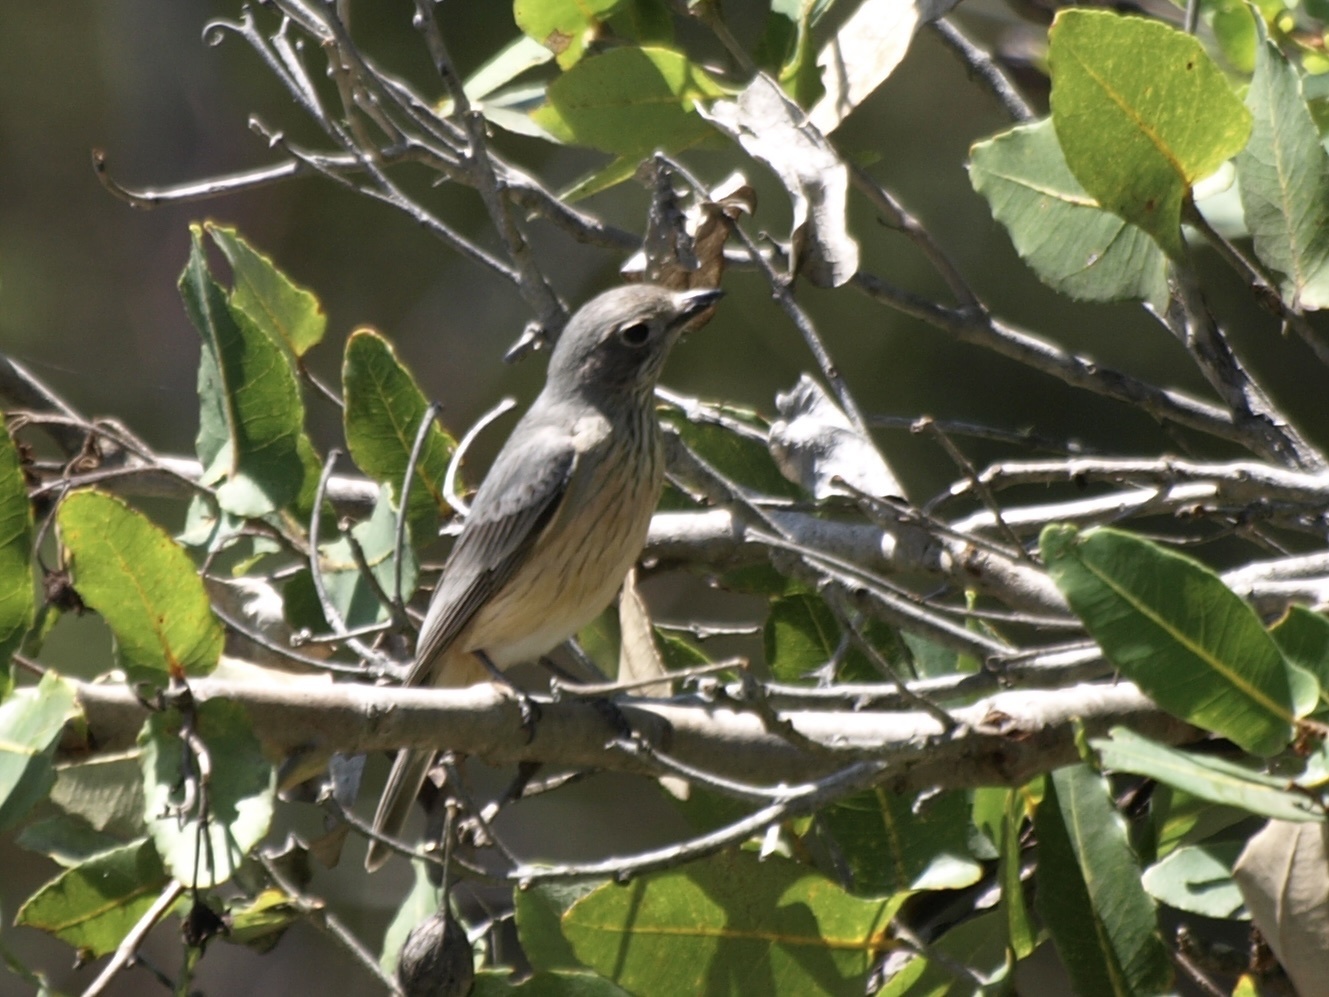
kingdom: Animalia
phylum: Chordata
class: Aves
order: Passeriformes
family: Pachycephalidae
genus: Pachycephala
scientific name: Pachycephala rufiventris
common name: Rufous whistler
